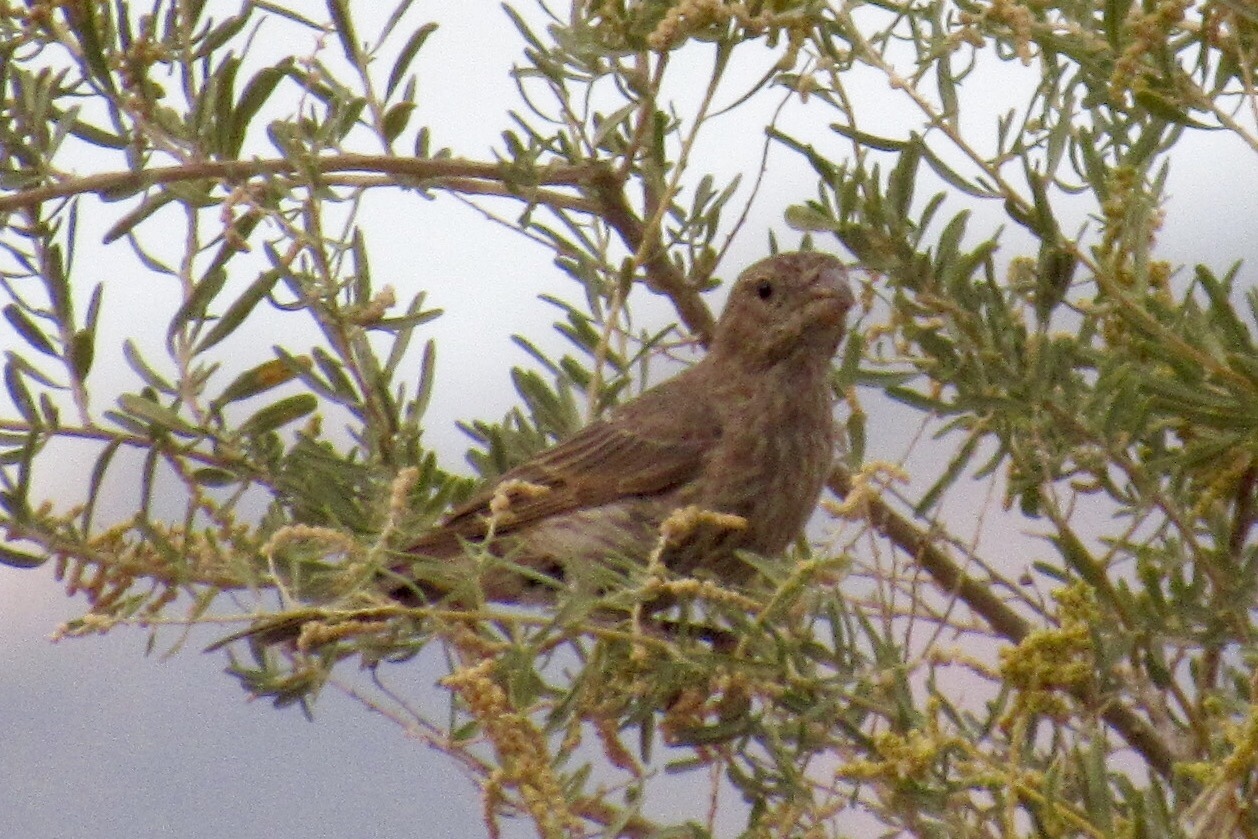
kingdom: Animalia
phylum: Chordata
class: Aves
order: Passeriformes
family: Fringillidae
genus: Haemorhous
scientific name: Haemorhous mexicanus
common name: House finch
